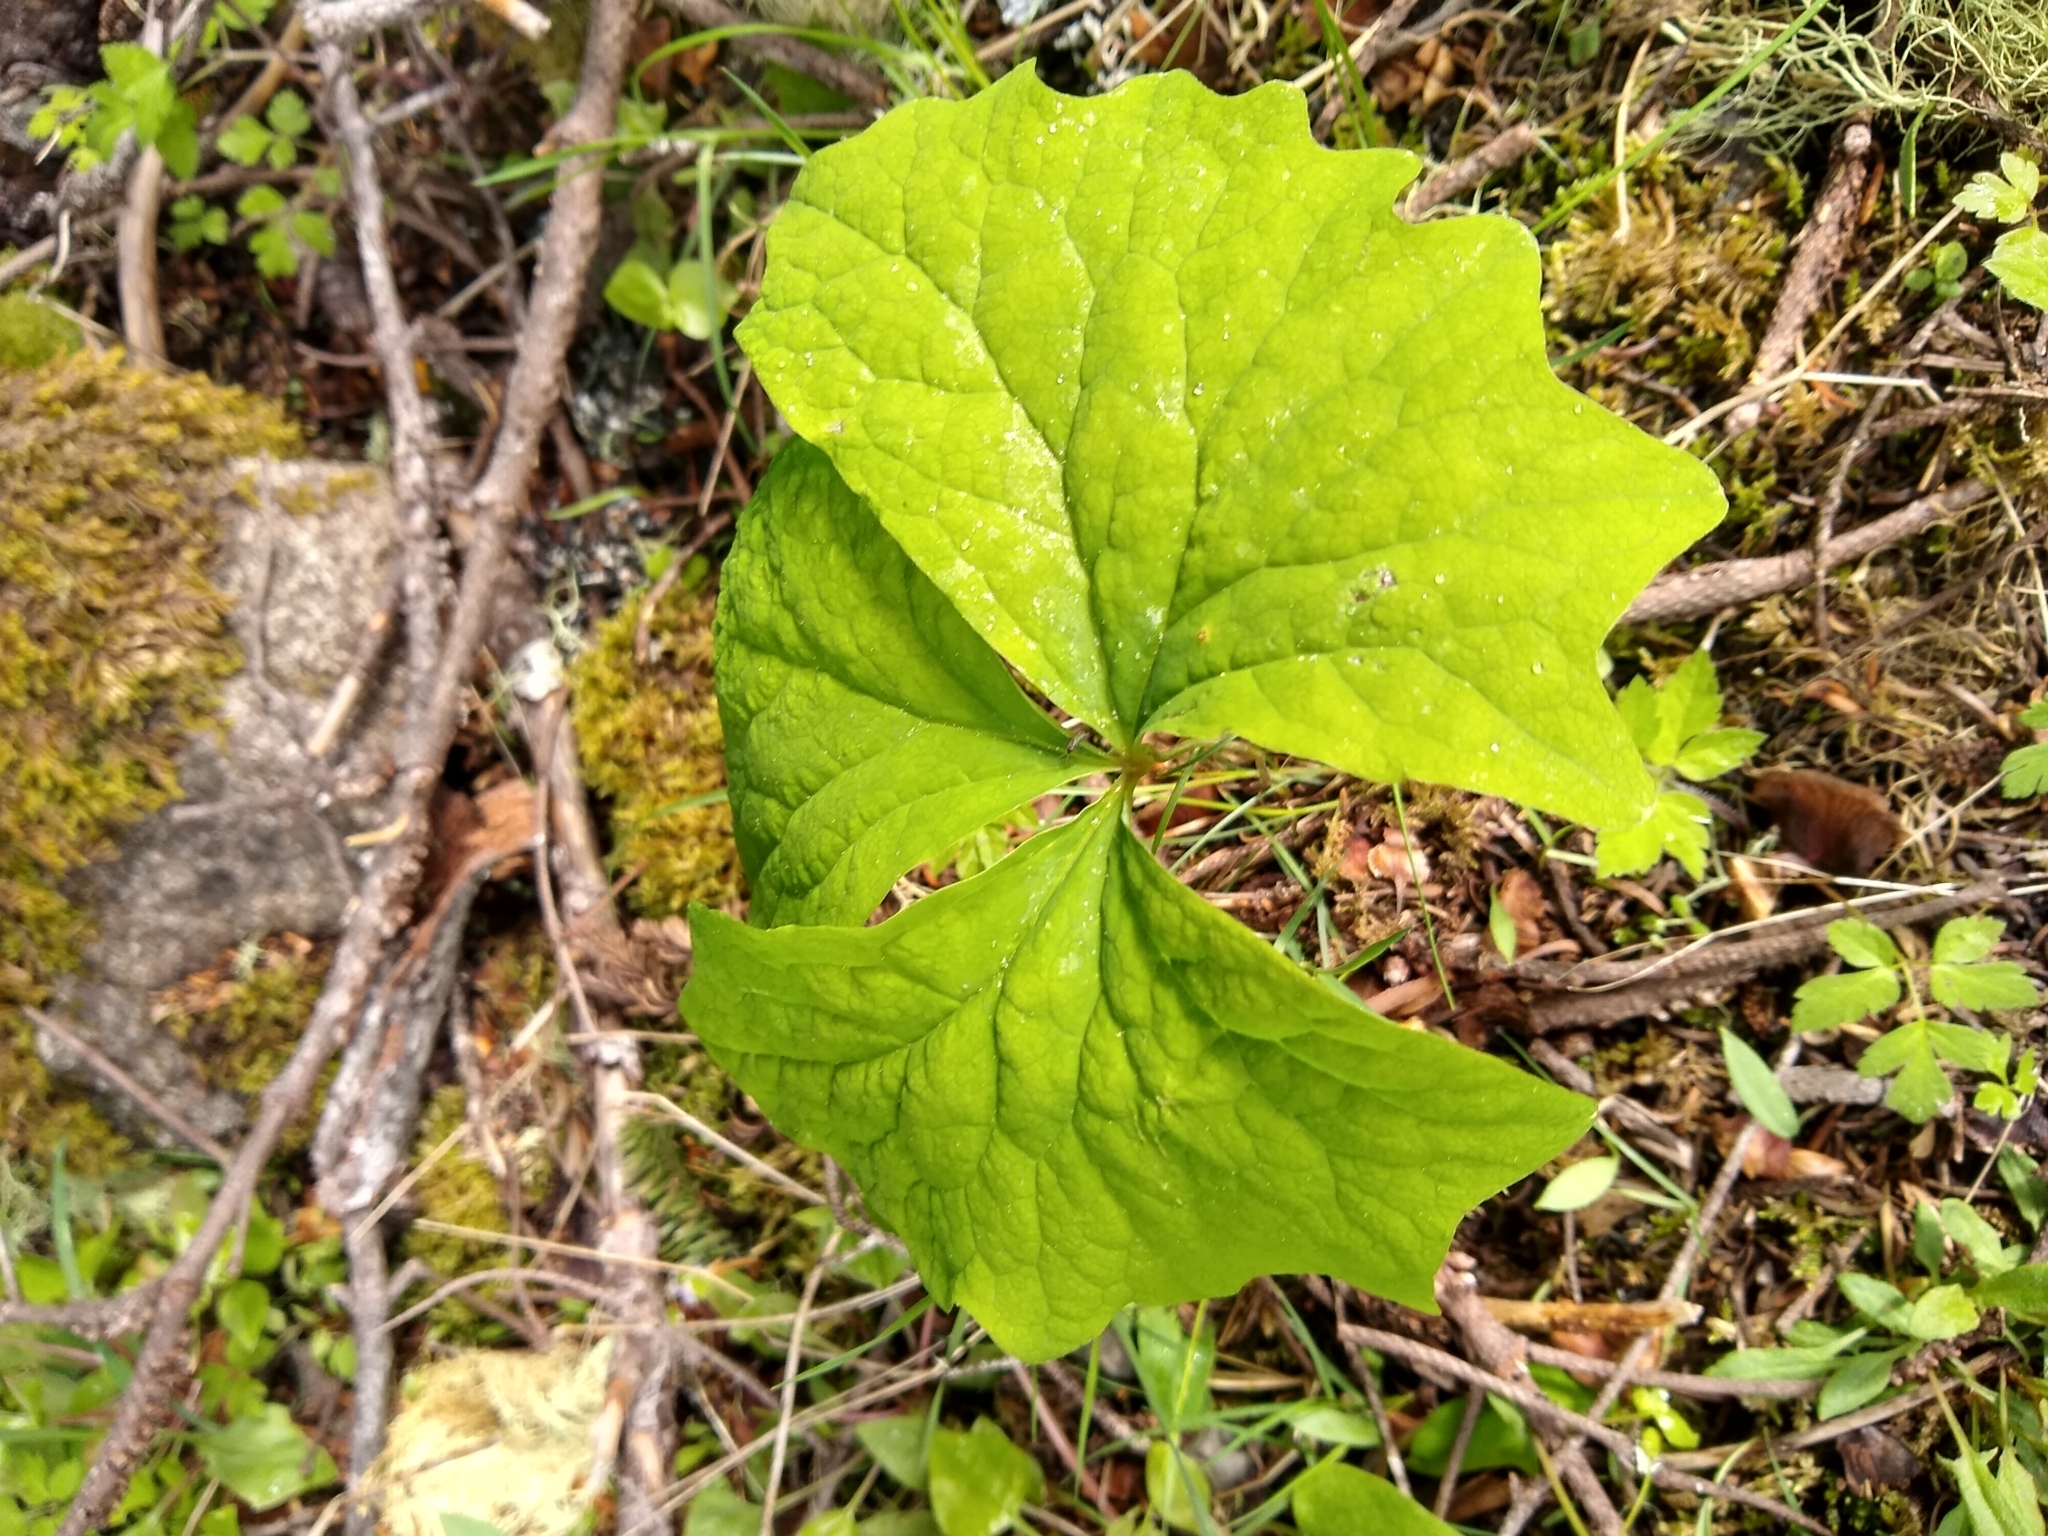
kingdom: Plantae
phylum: Tracheophyta
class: Magnoliopsida
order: Ranunculales
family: Berberidaceae
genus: Achlys
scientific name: Achlys triphylla
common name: Vanilla-leaf
